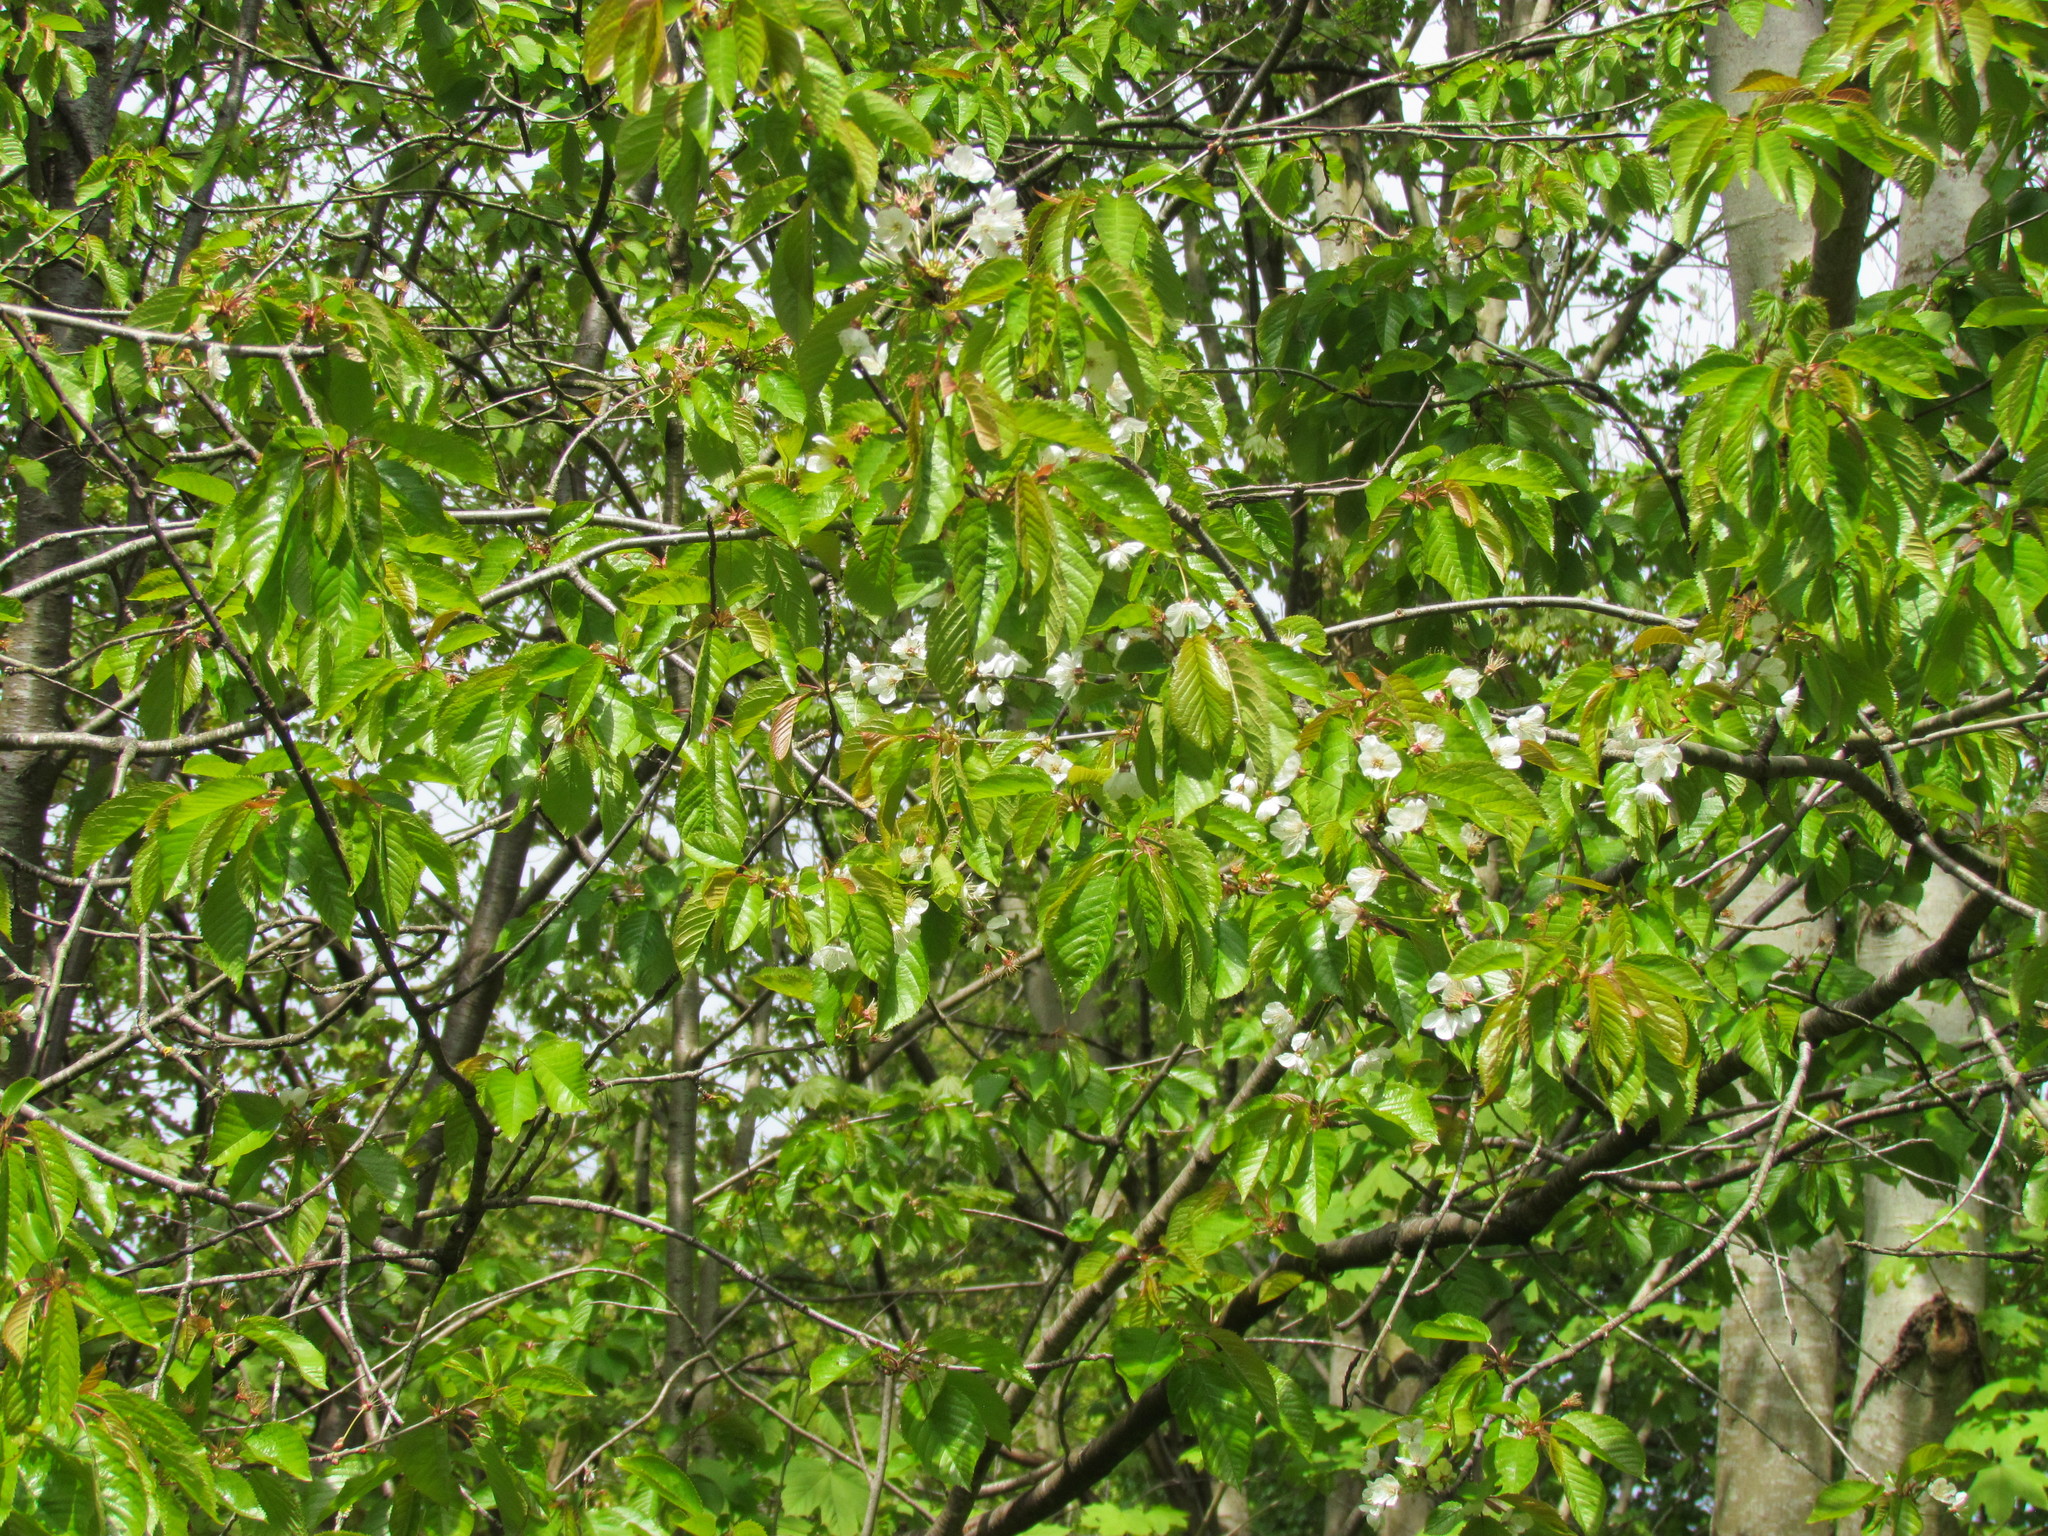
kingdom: Plantae
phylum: Tracheophyta
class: Magnoliopsida
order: Rosales
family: Rosaceae
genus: Prunus
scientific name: Prunus avium
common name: Sweet cherry
